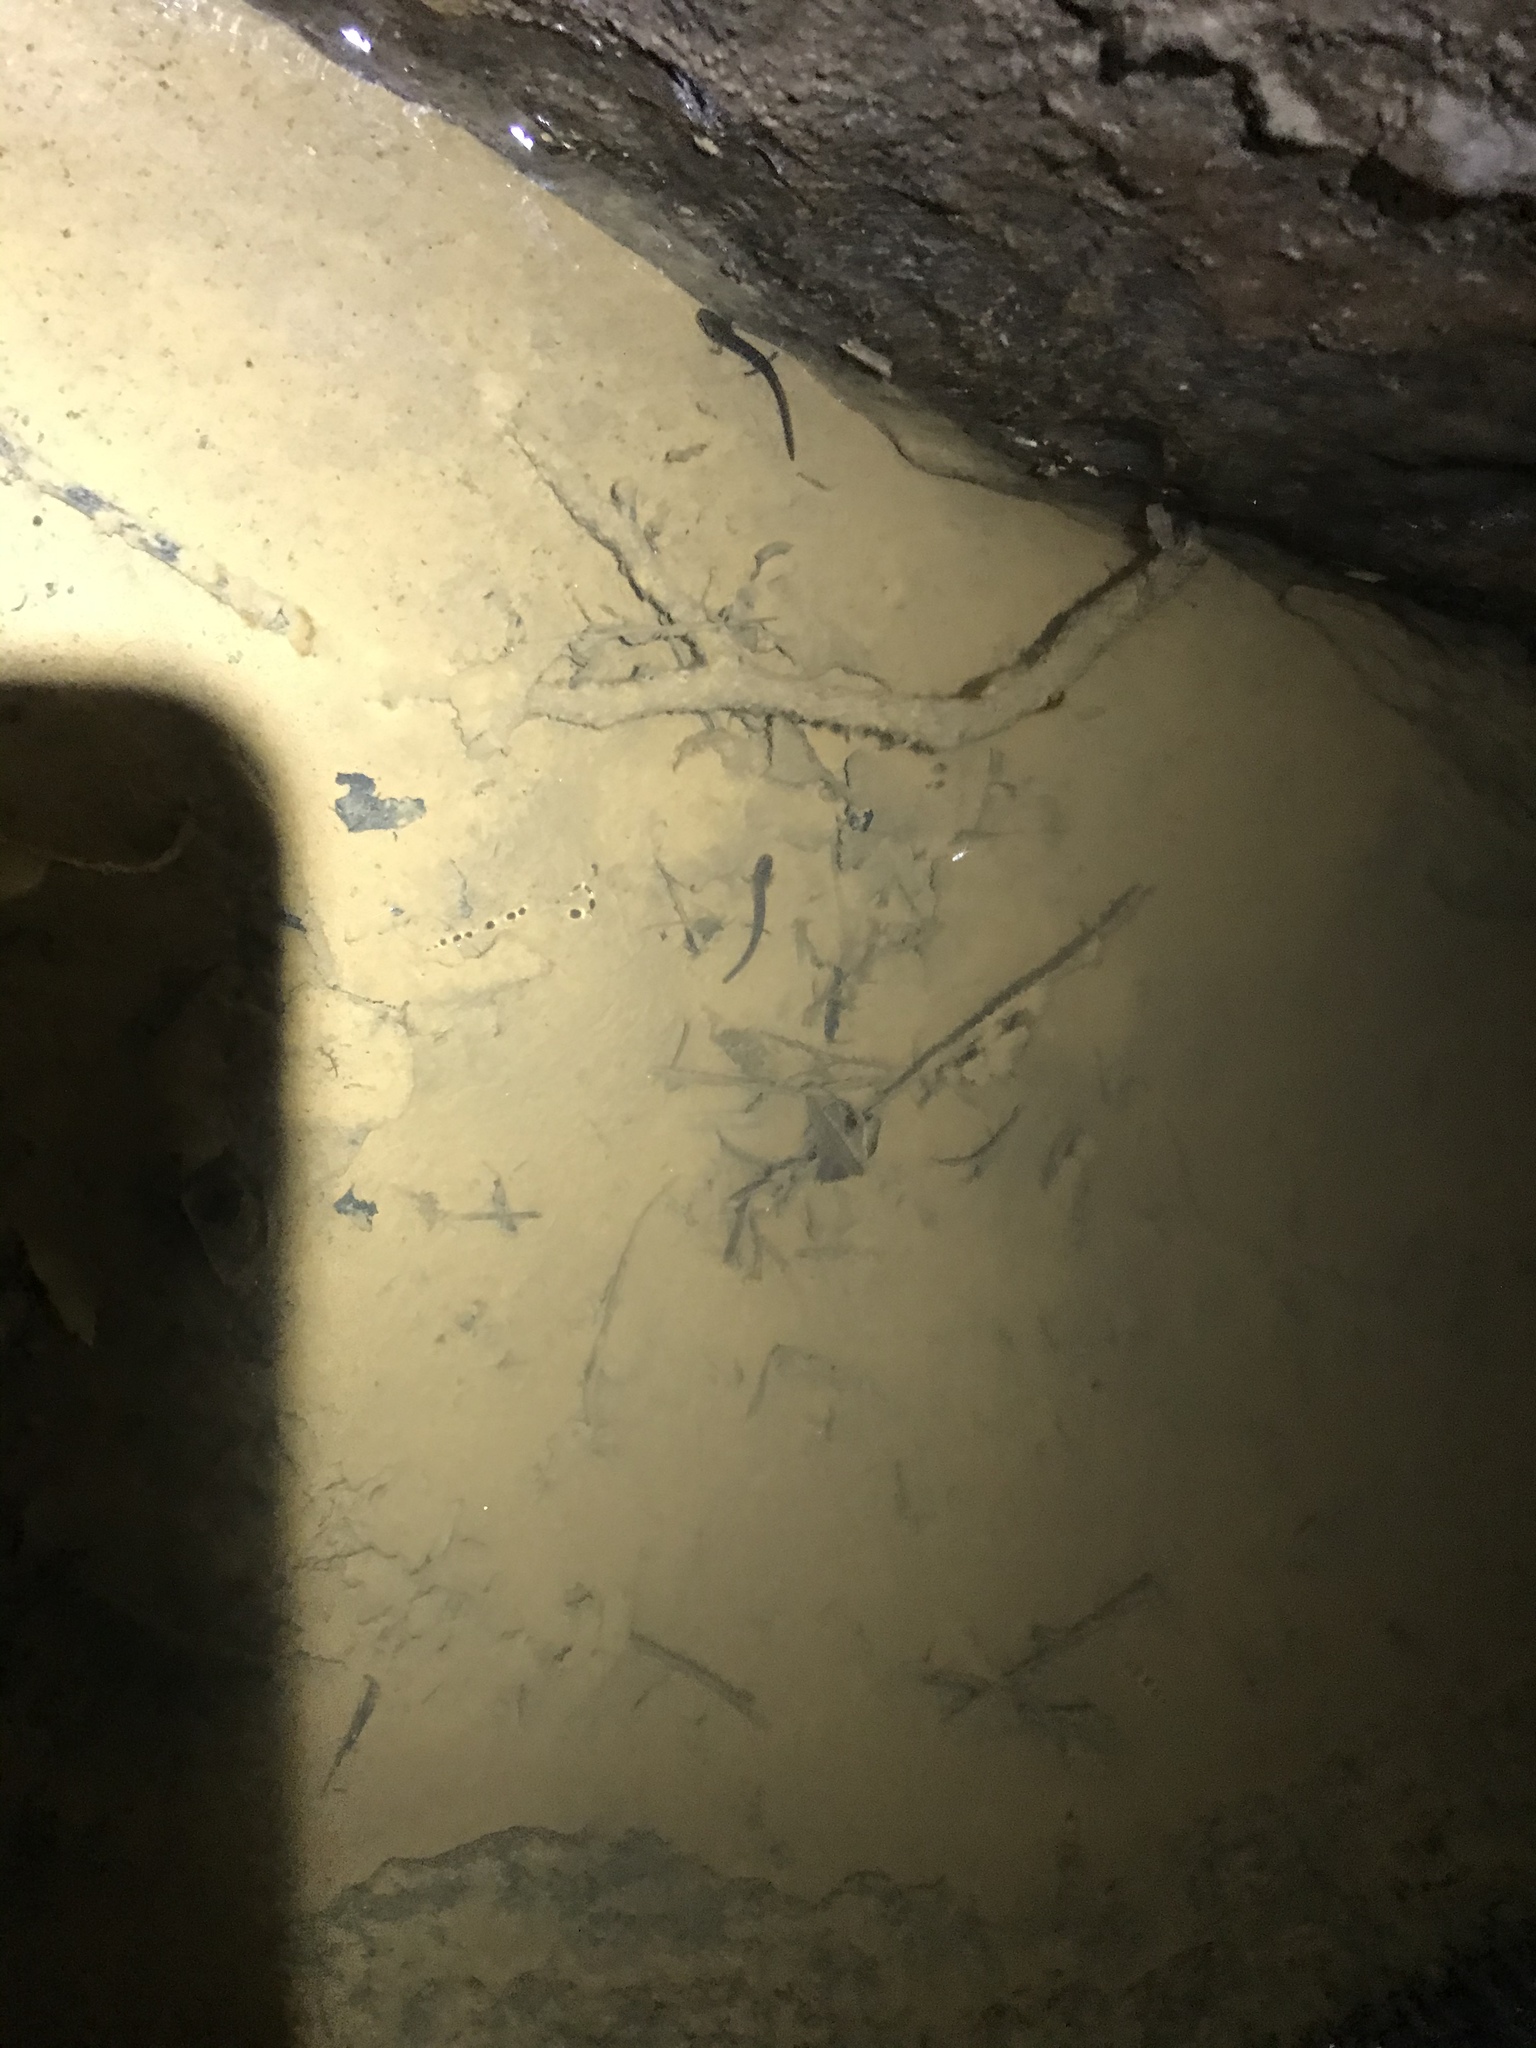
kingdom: Animalia
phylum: Chordata
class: Amphibia
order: Caudata
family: Plethodontidae
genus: Eurycea
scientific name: Eurycea lucifuga
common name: Cave salamander
